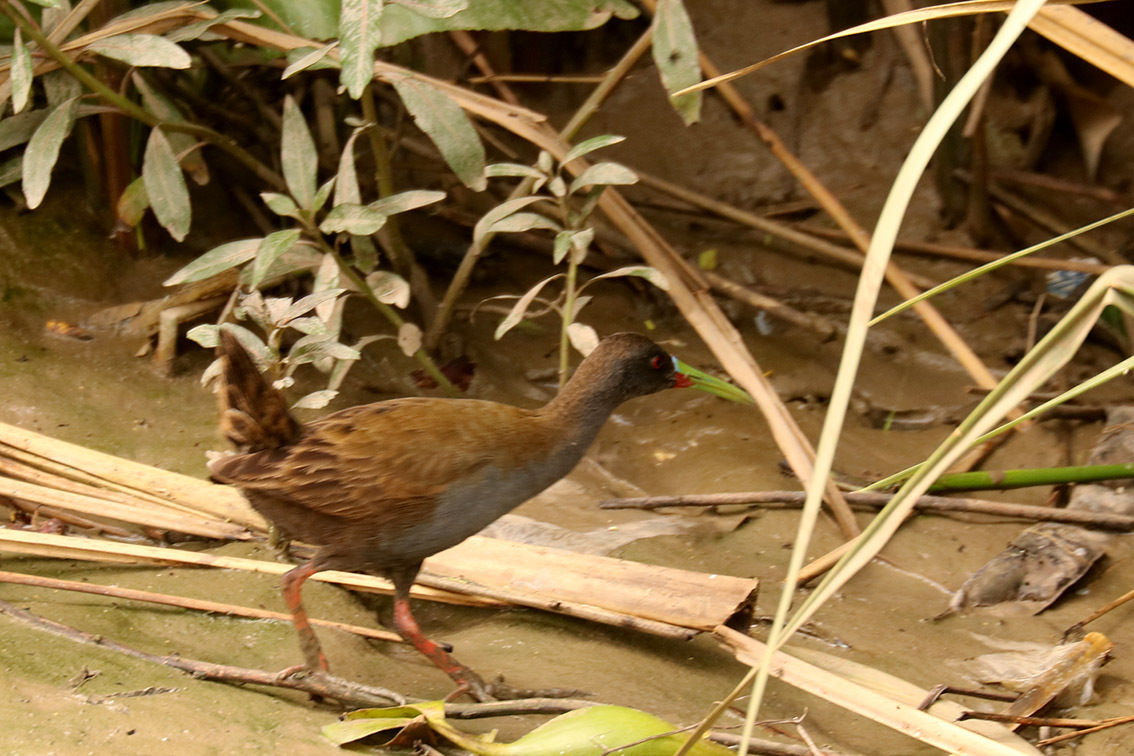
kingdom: Animalia
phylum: Chordata
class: Aves
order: Gruiformes
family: Rallidae
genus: Pardirallus
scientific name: Pardirallus sanguinolentus
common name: Plumbeous rail
